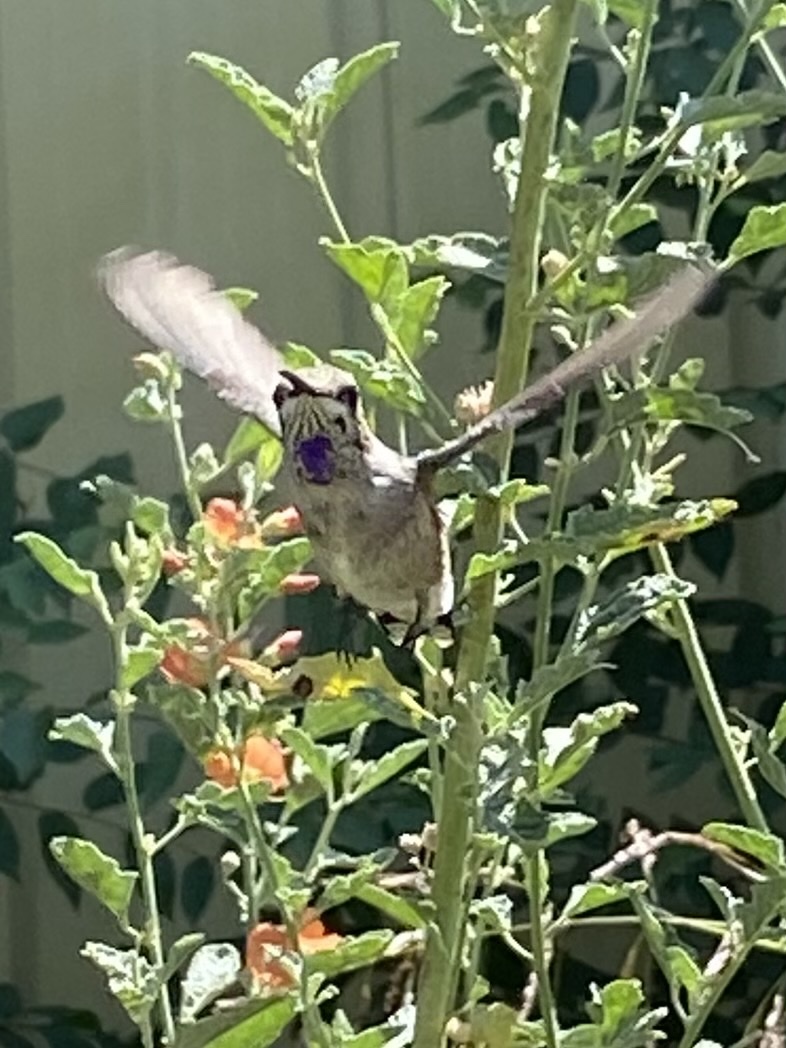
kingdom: Animalia
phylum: Chordata
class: Aves
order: Apodiformes
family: Trochilidae
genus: Archilochus
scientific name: Archilochus alexandri
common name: Black-chinned hummingbird
